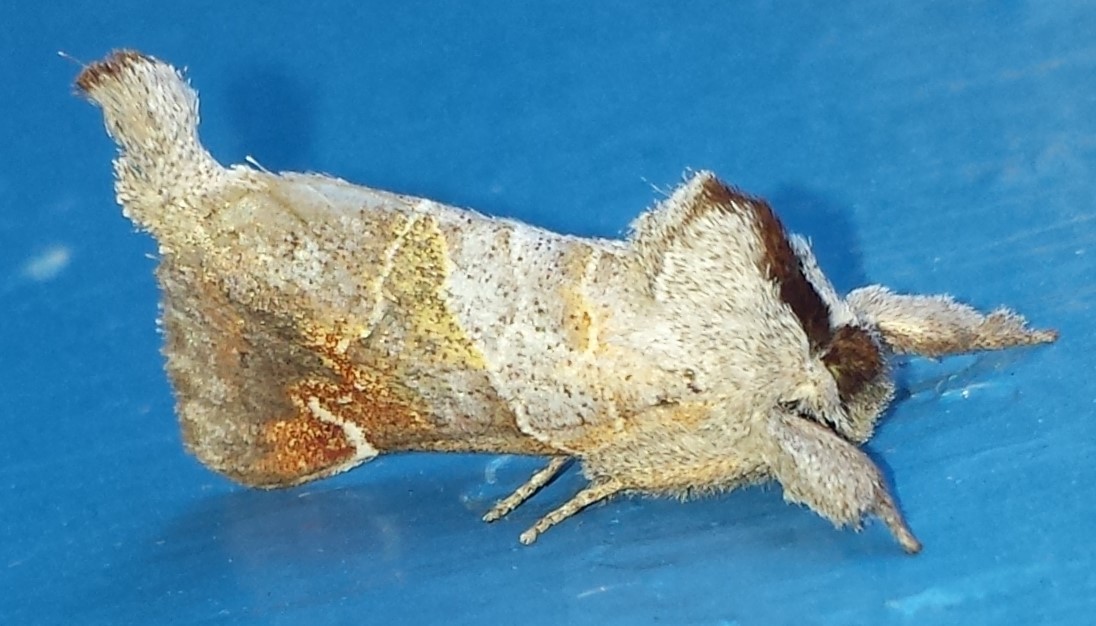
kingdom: Animalia
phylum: Arthropoda
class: Insecta
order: Lepidoptera
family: Notodontidae
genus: Clostera
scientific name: Clostera apicalis
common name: Apical prominent
